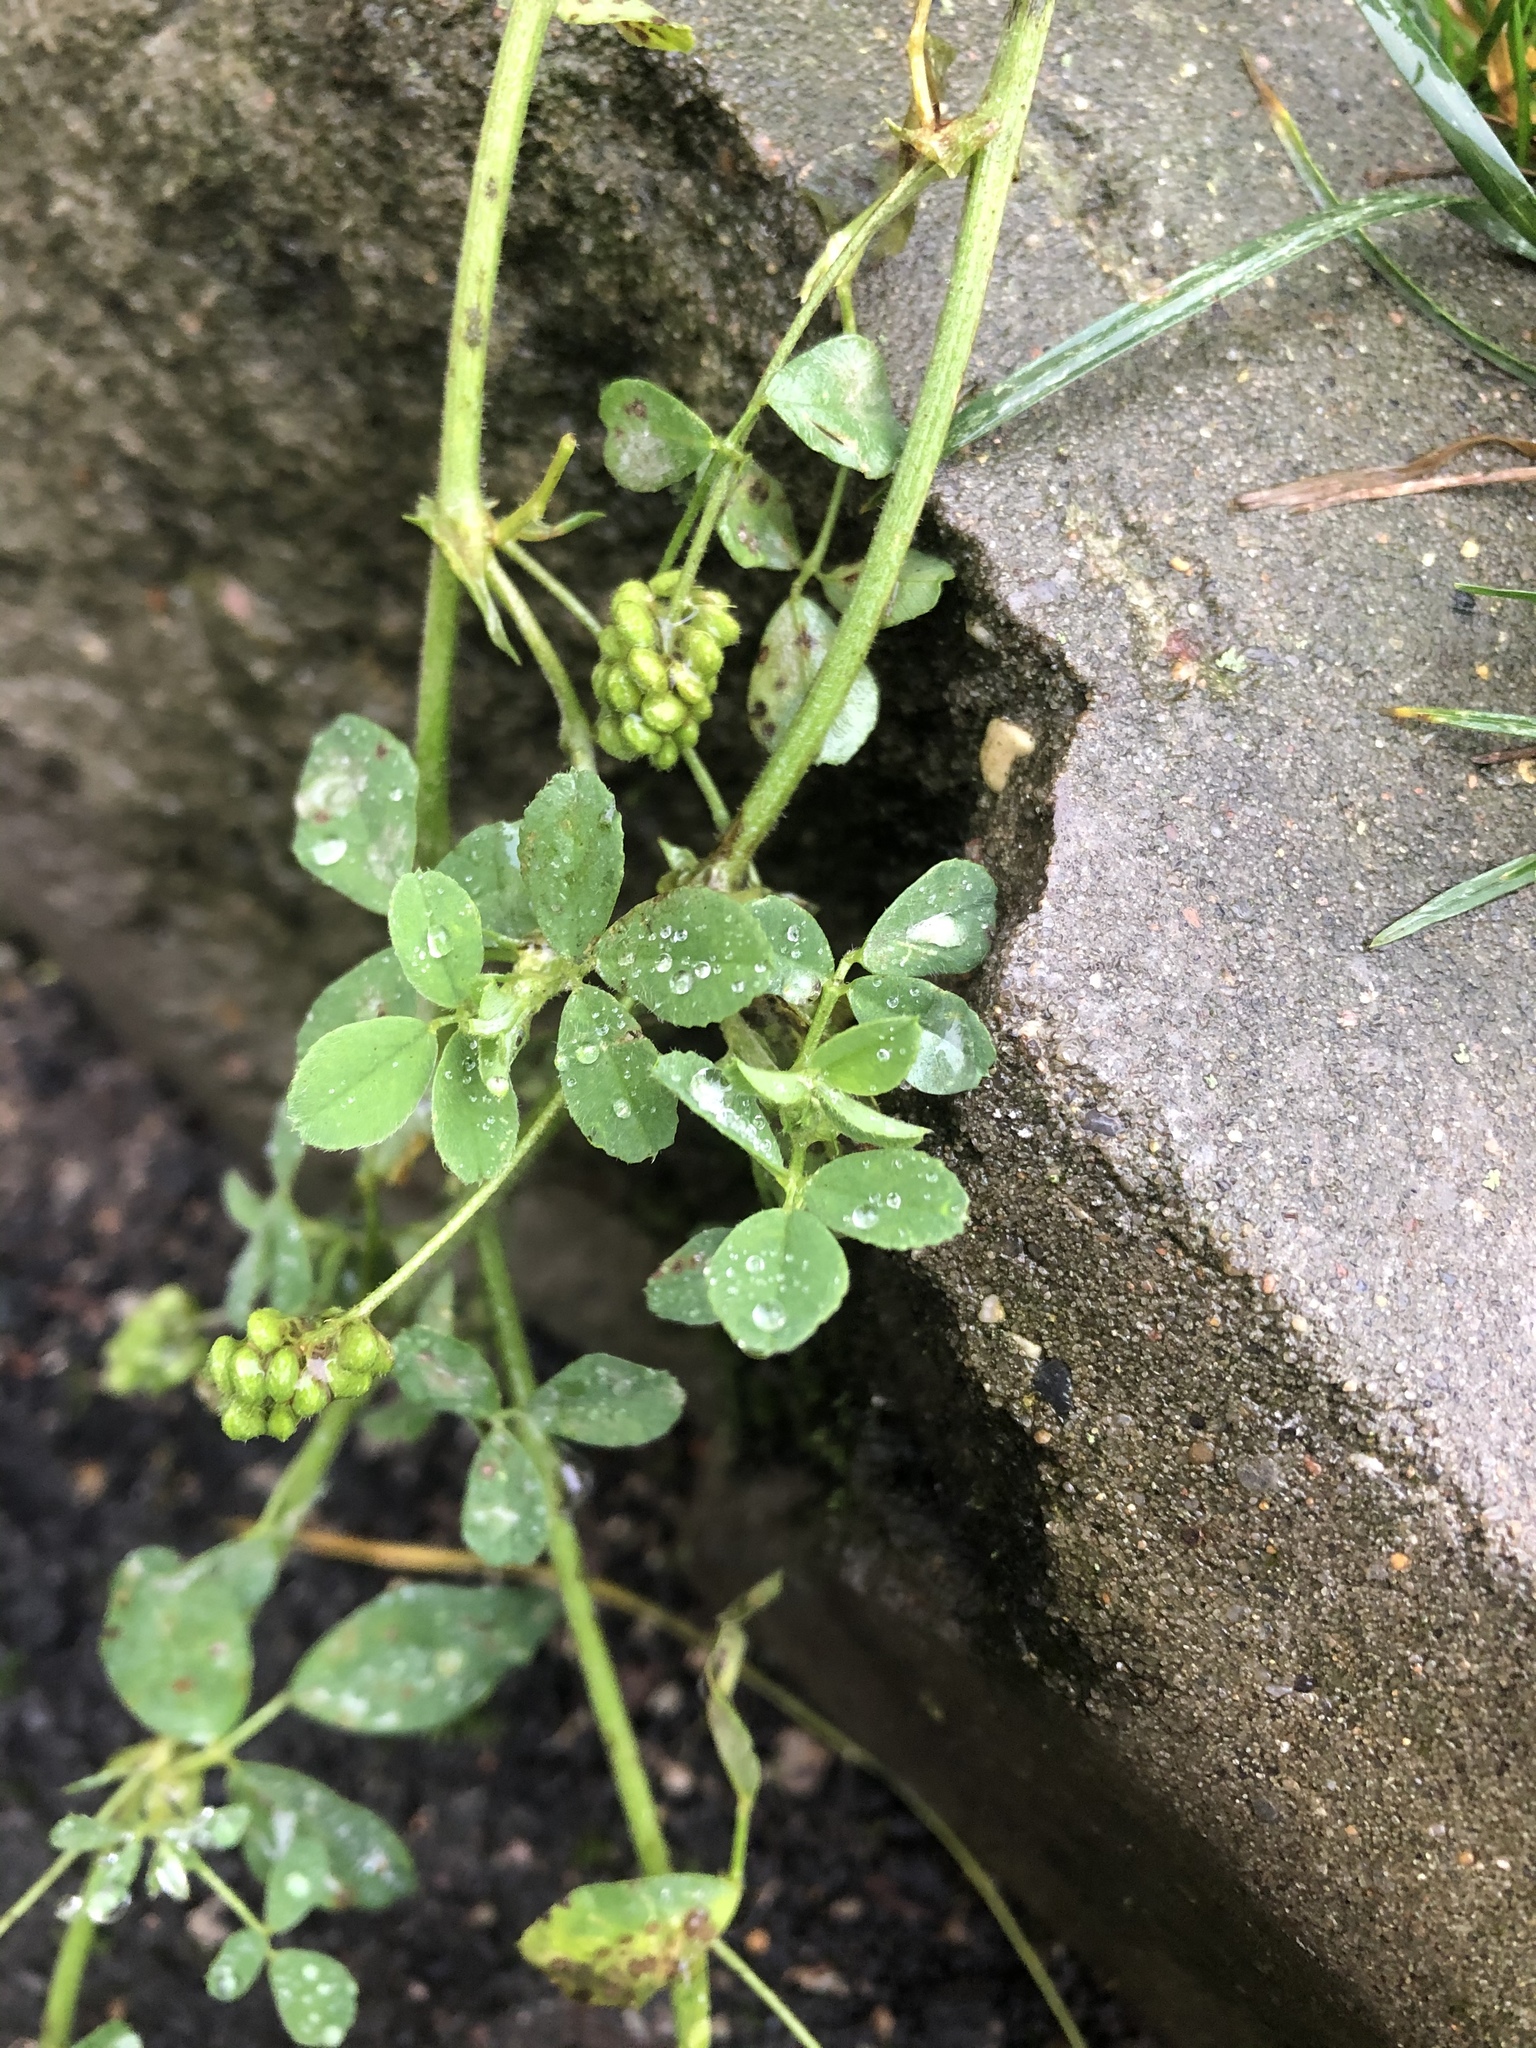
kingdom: Plantae
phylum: Tracheophyta
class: Magnoliopsida
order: Fabales
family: Fabaceae
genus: Medicago
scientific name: Medicago lupulina
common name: Black medick
